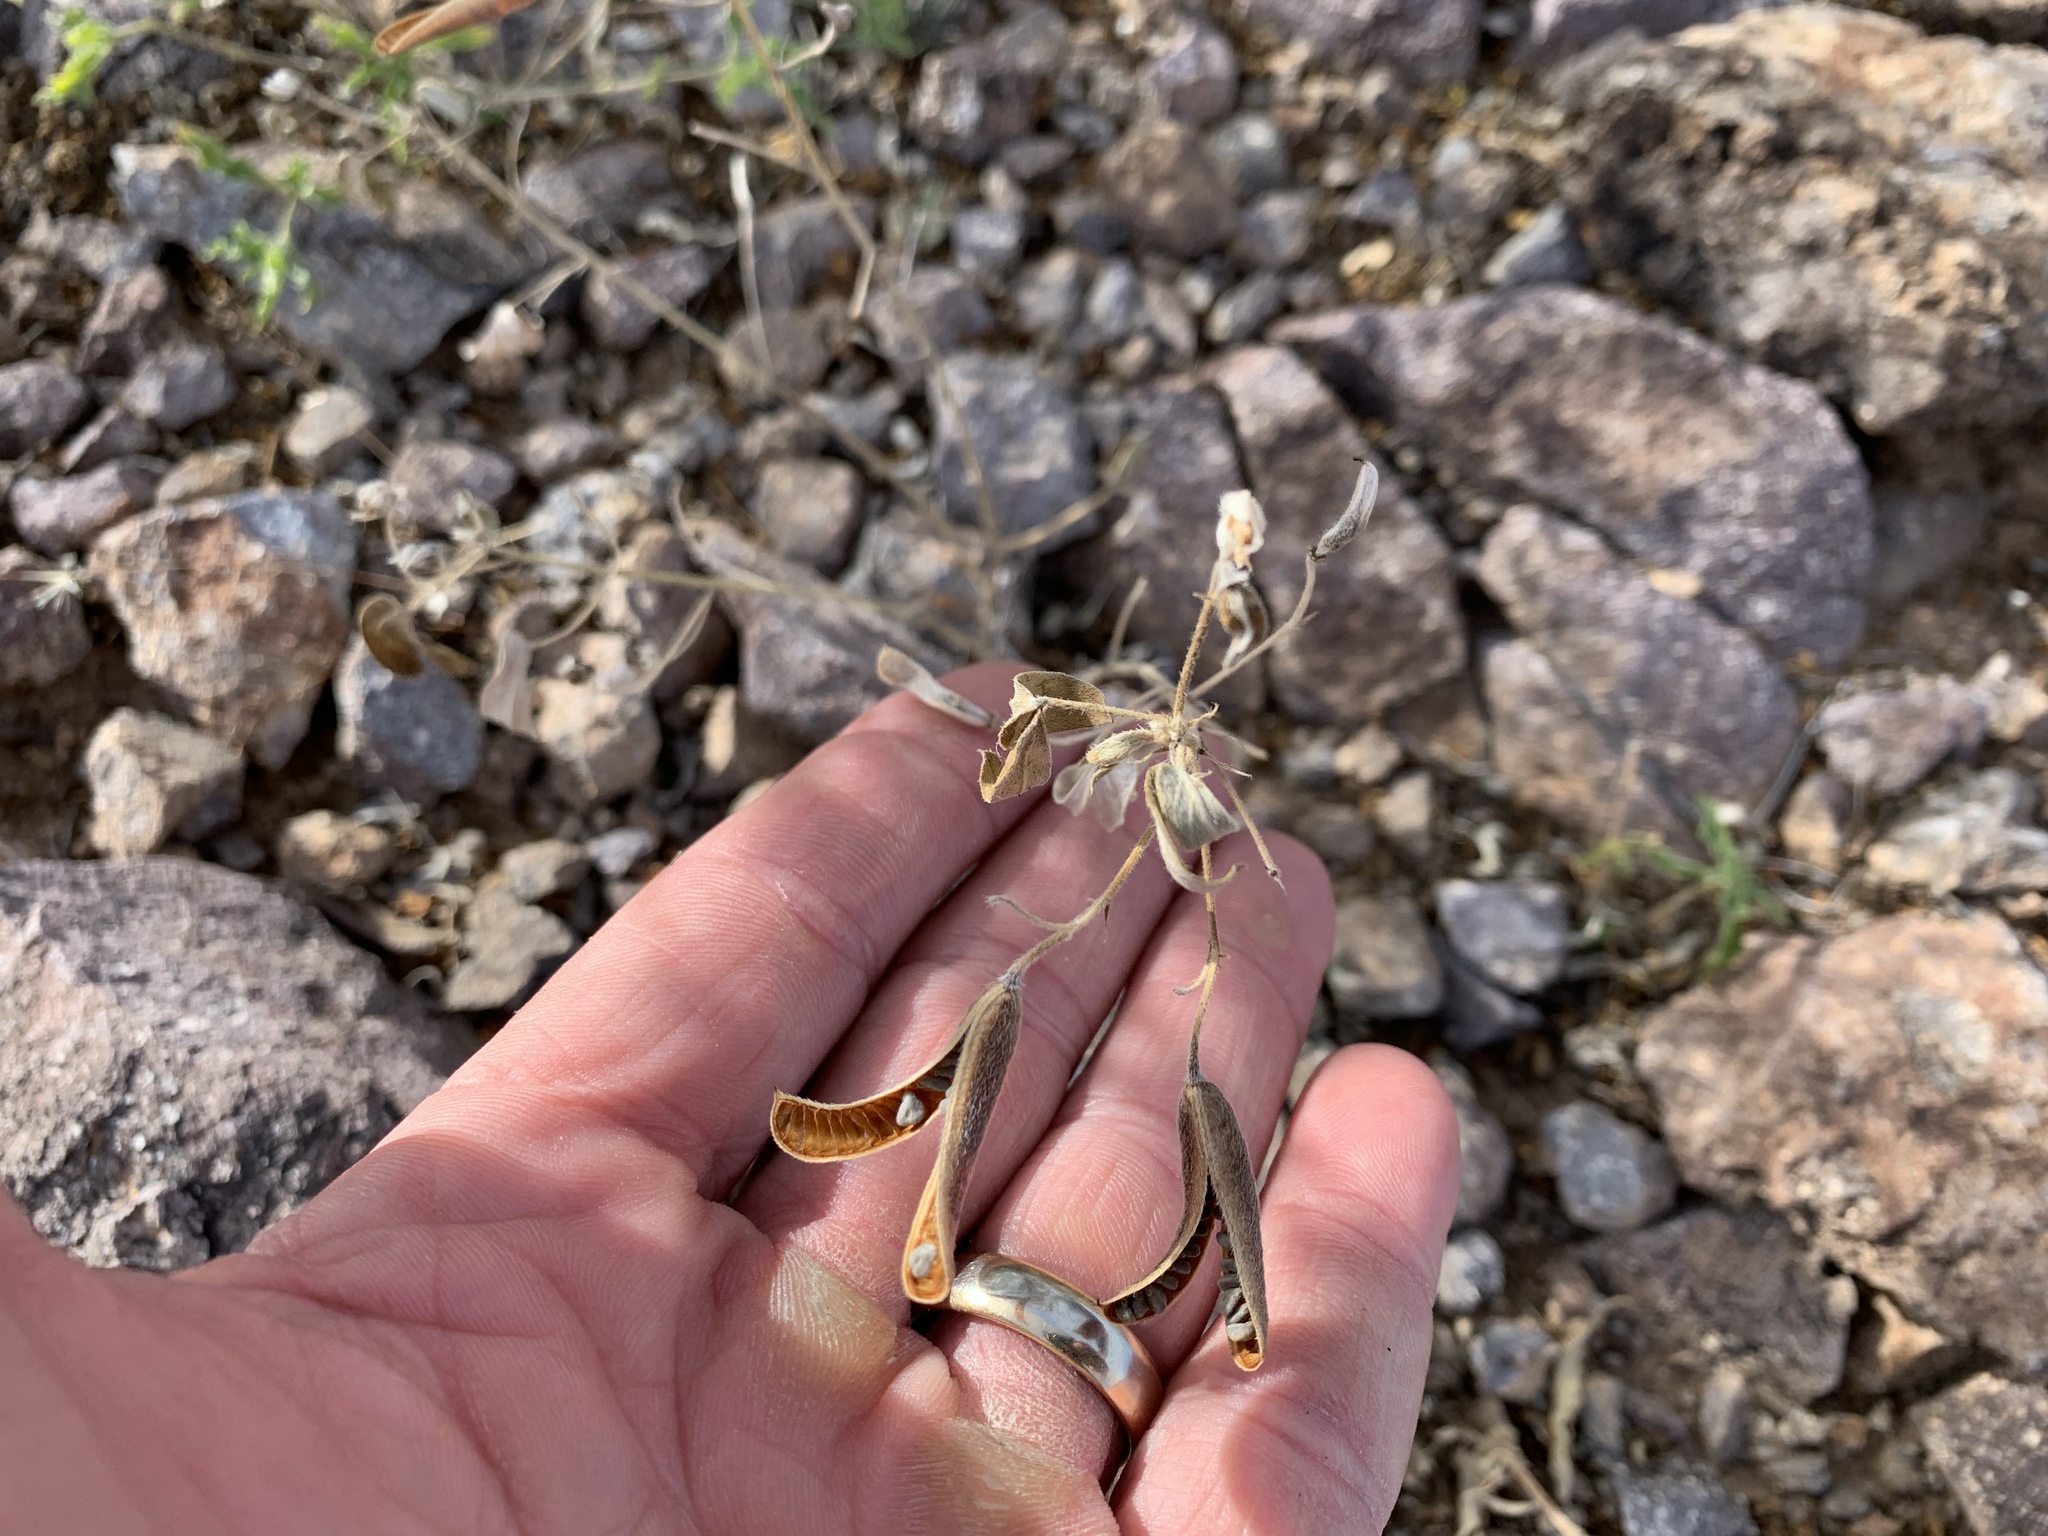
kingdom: Plantae
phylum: Tracheophyta
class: Magnoliopsida
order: Fabales
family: Fabaceae
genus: Senna
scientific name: Senna covesii
